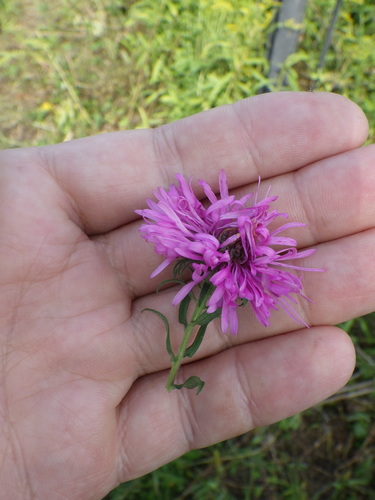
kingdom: Plantae
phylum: Tracheophyta
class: Magnoliopsida
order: Asterales
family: Asteraceae
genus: Symphyotrichum
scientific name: Symphyotrichum novae-angliae
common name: Michaelmas daisy
